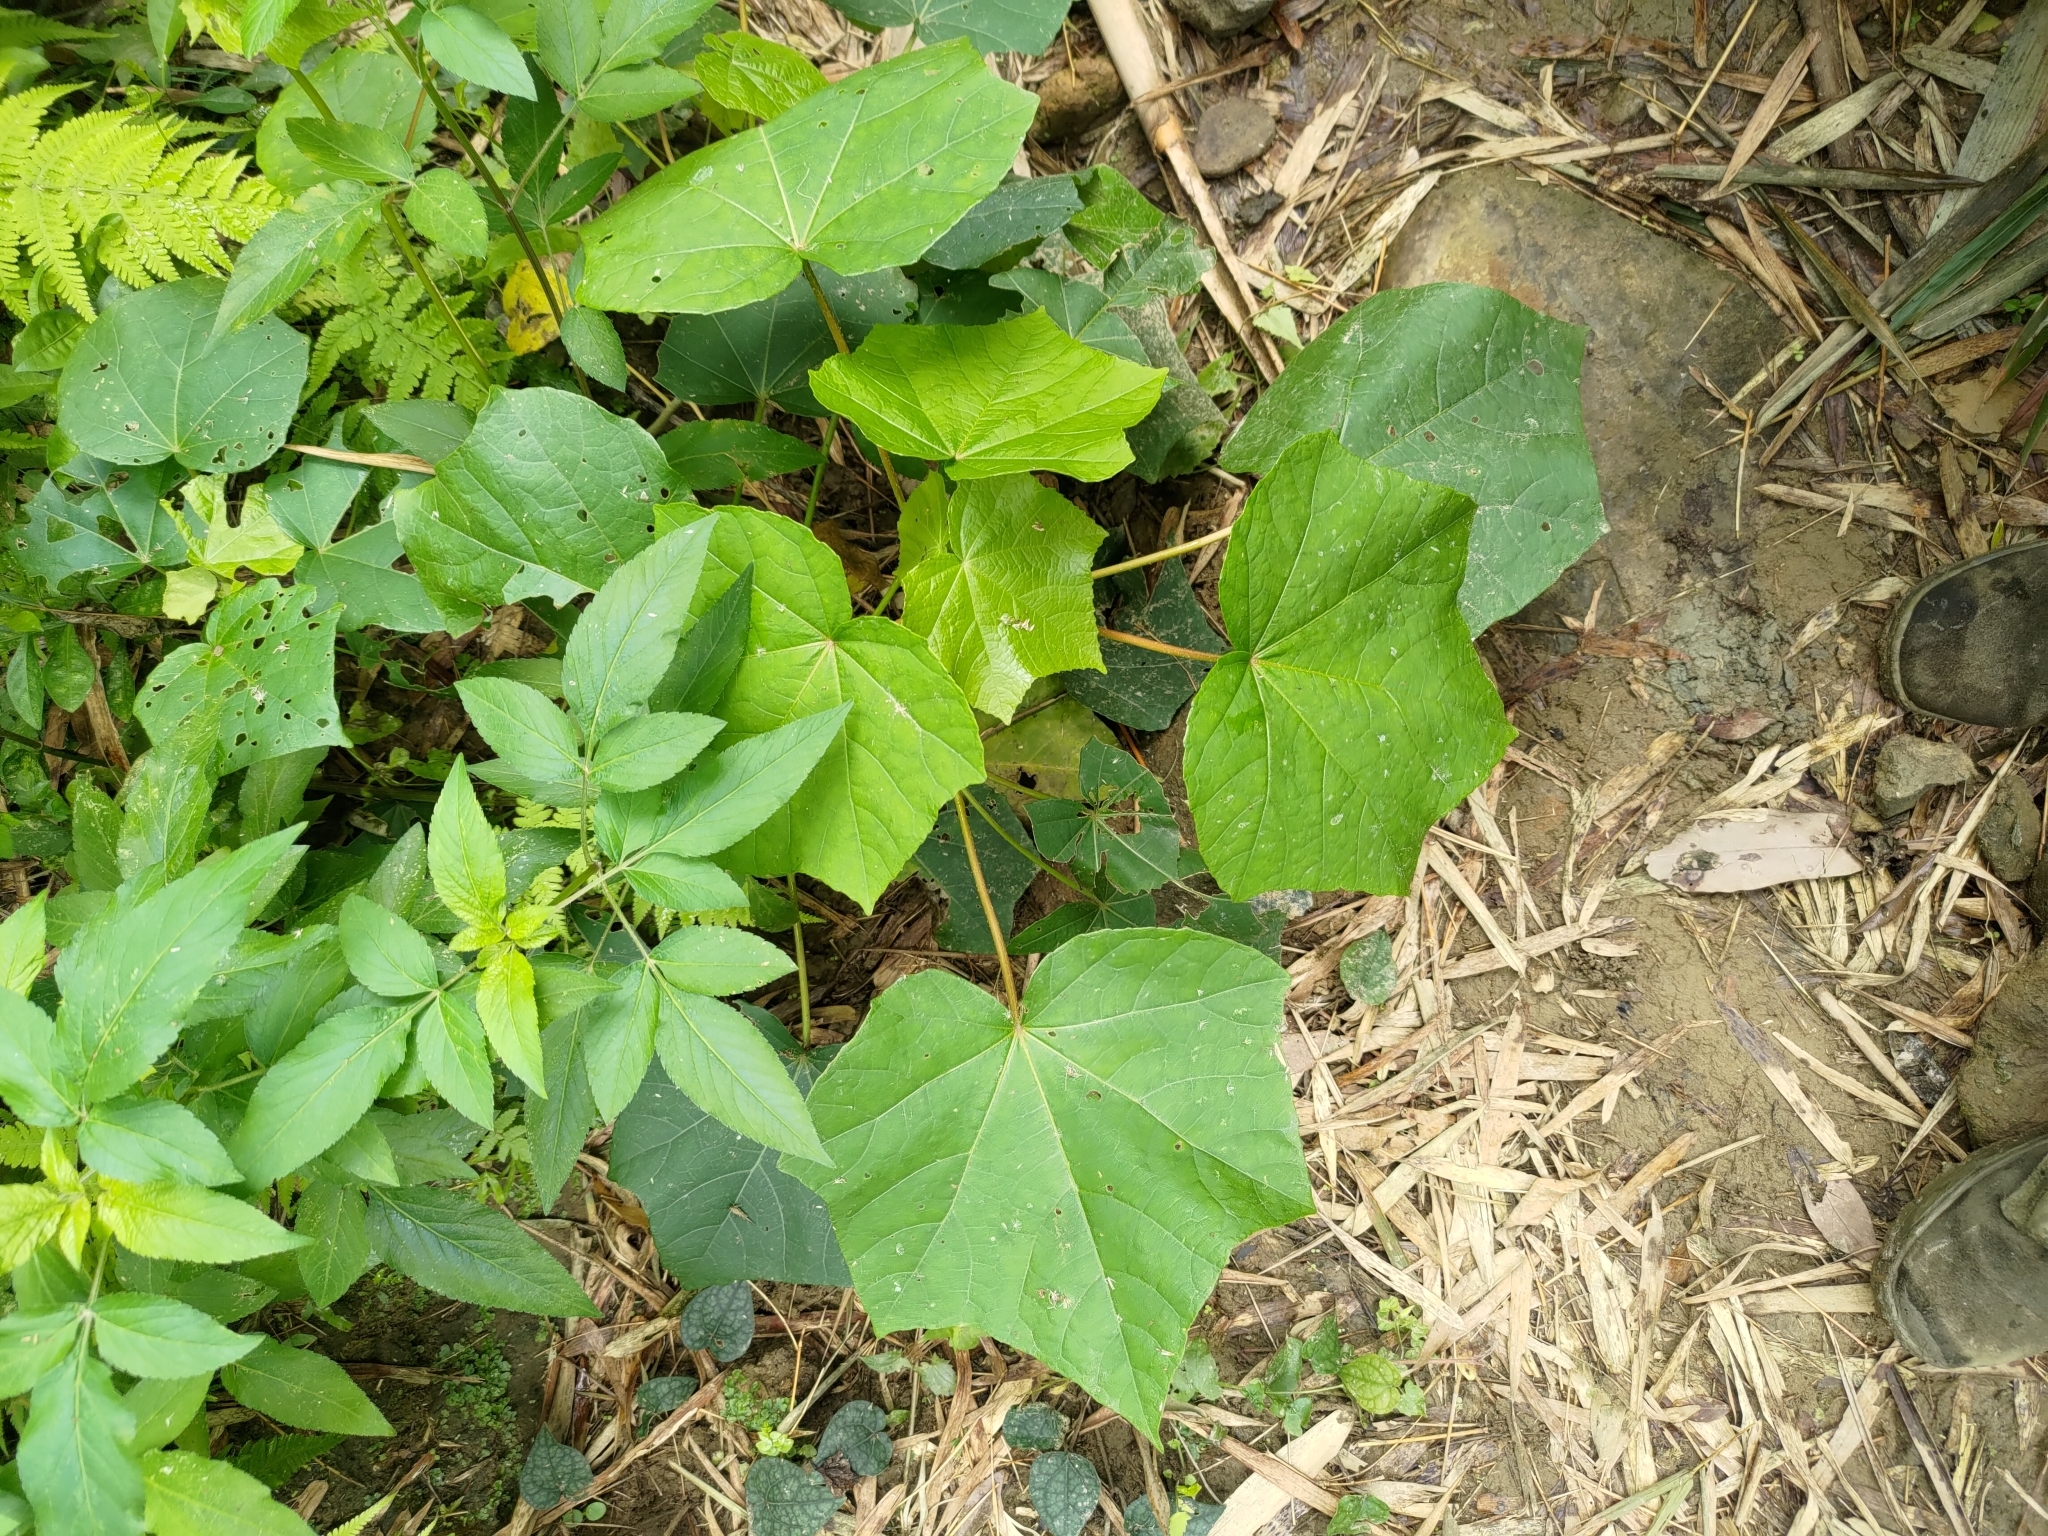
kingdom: Plantae
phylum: Tracheophyta
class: Magnoliopsida
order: Malvales
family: Malvaceae
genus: Hibiscus
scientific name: Hibiscus taiwanensis
